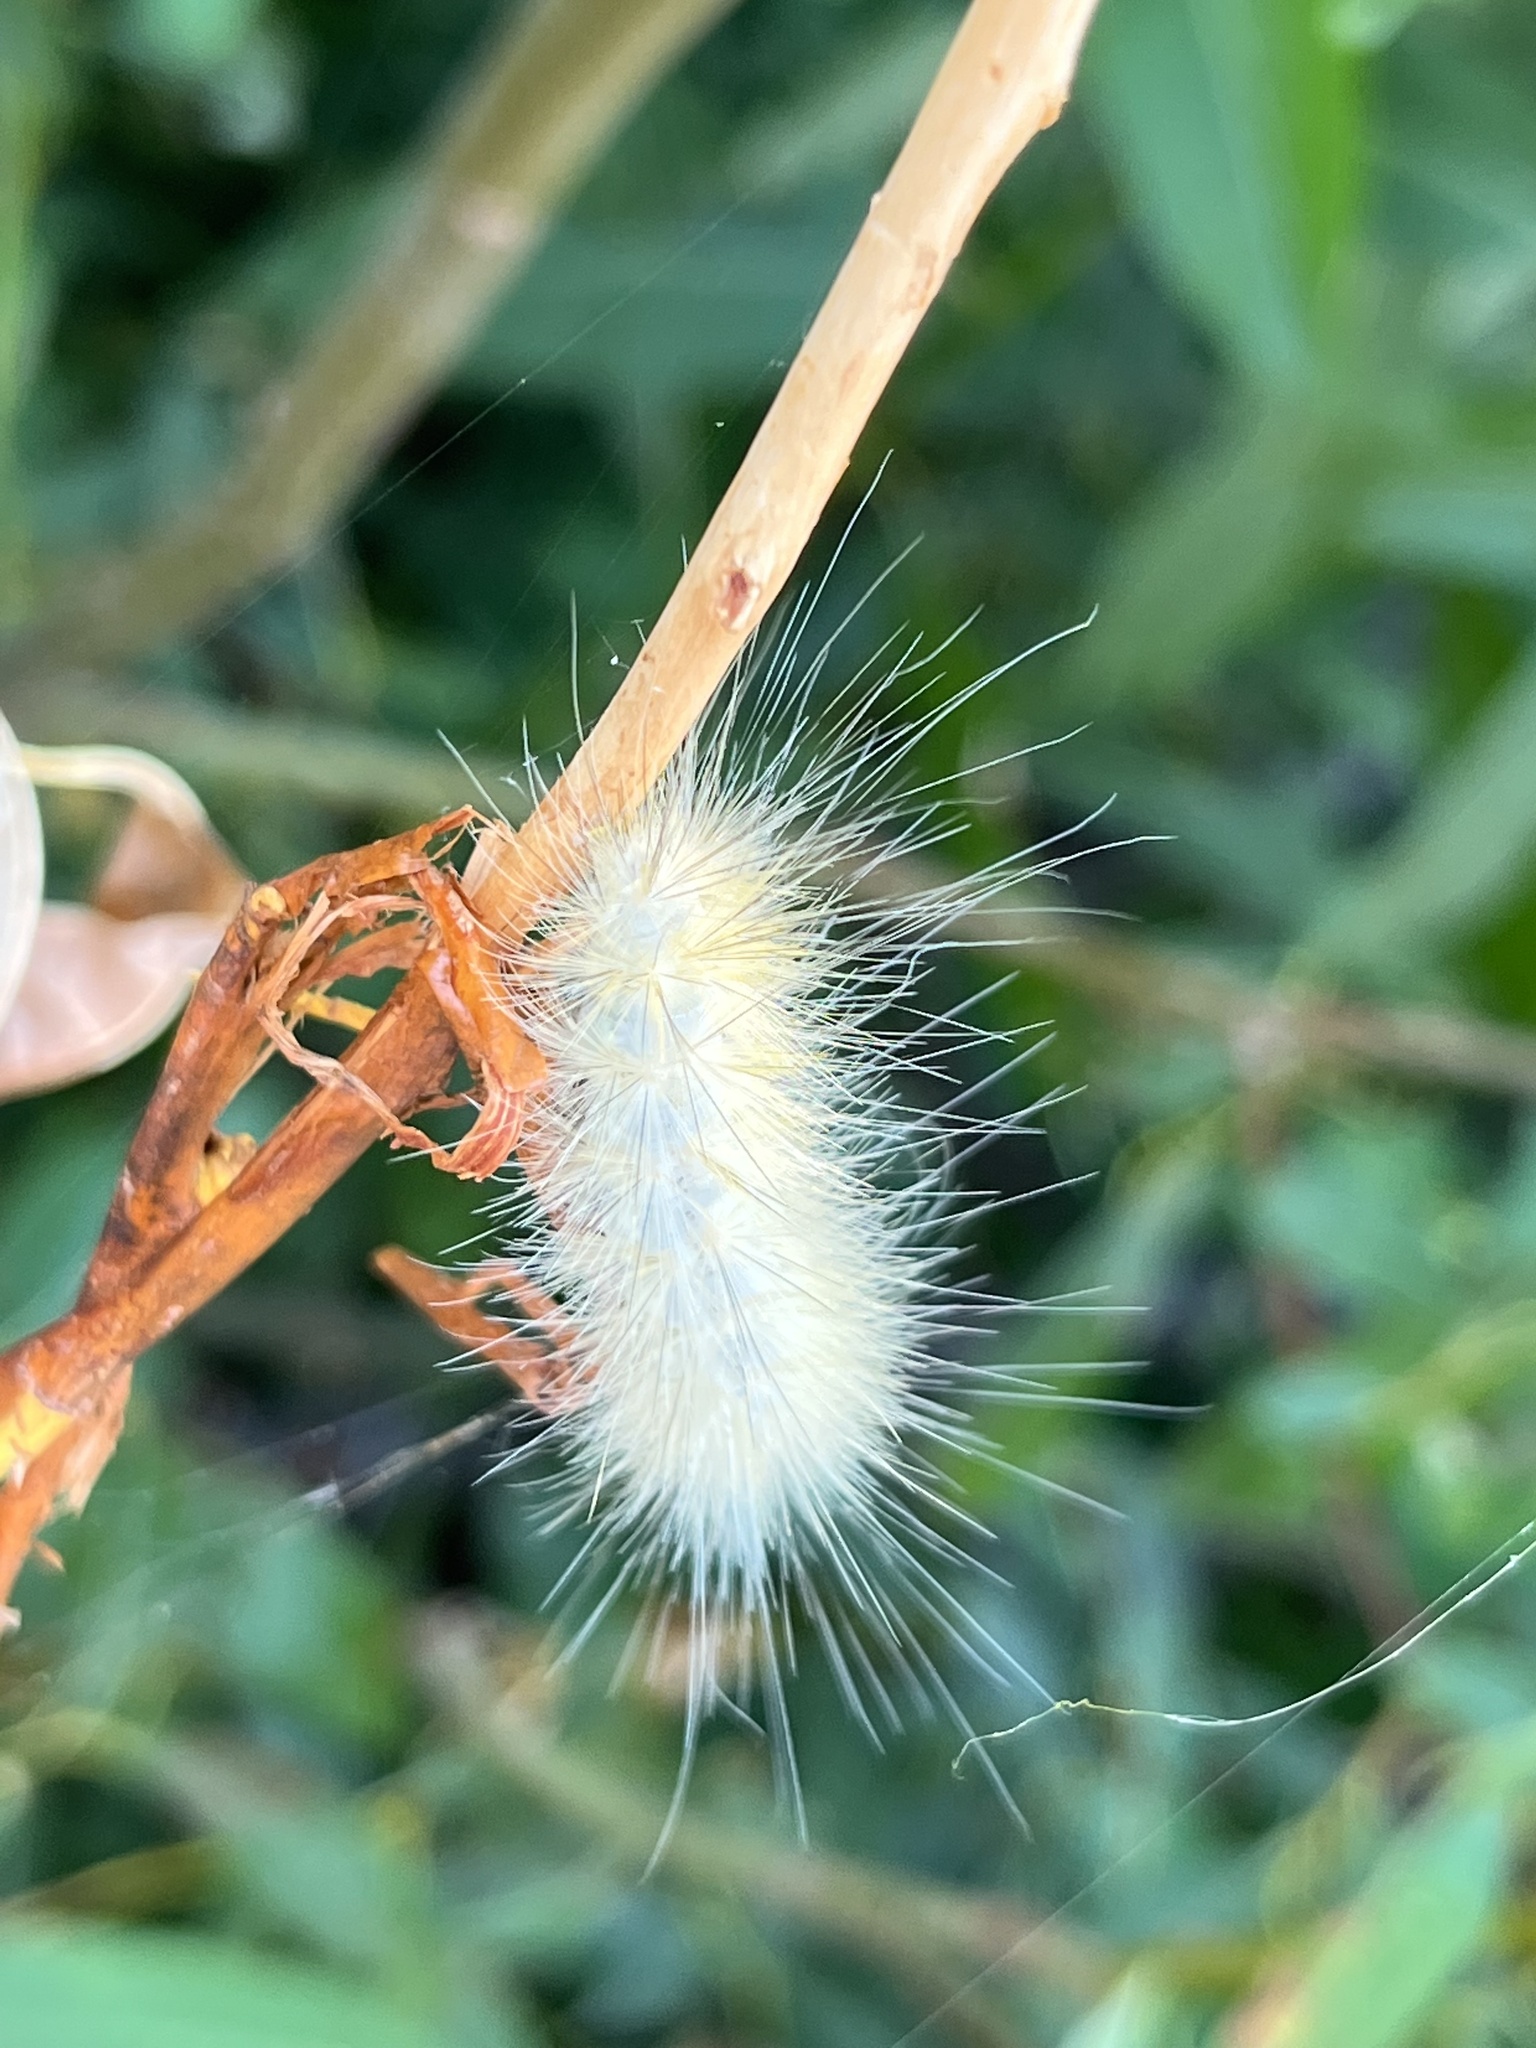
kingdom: Animalia
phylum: Arthropoda
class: Insecta
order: Lepidoptera
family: Erebidae
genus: Spilosoma
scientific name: Spilosoma virginica
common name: Virginia tiger moth
